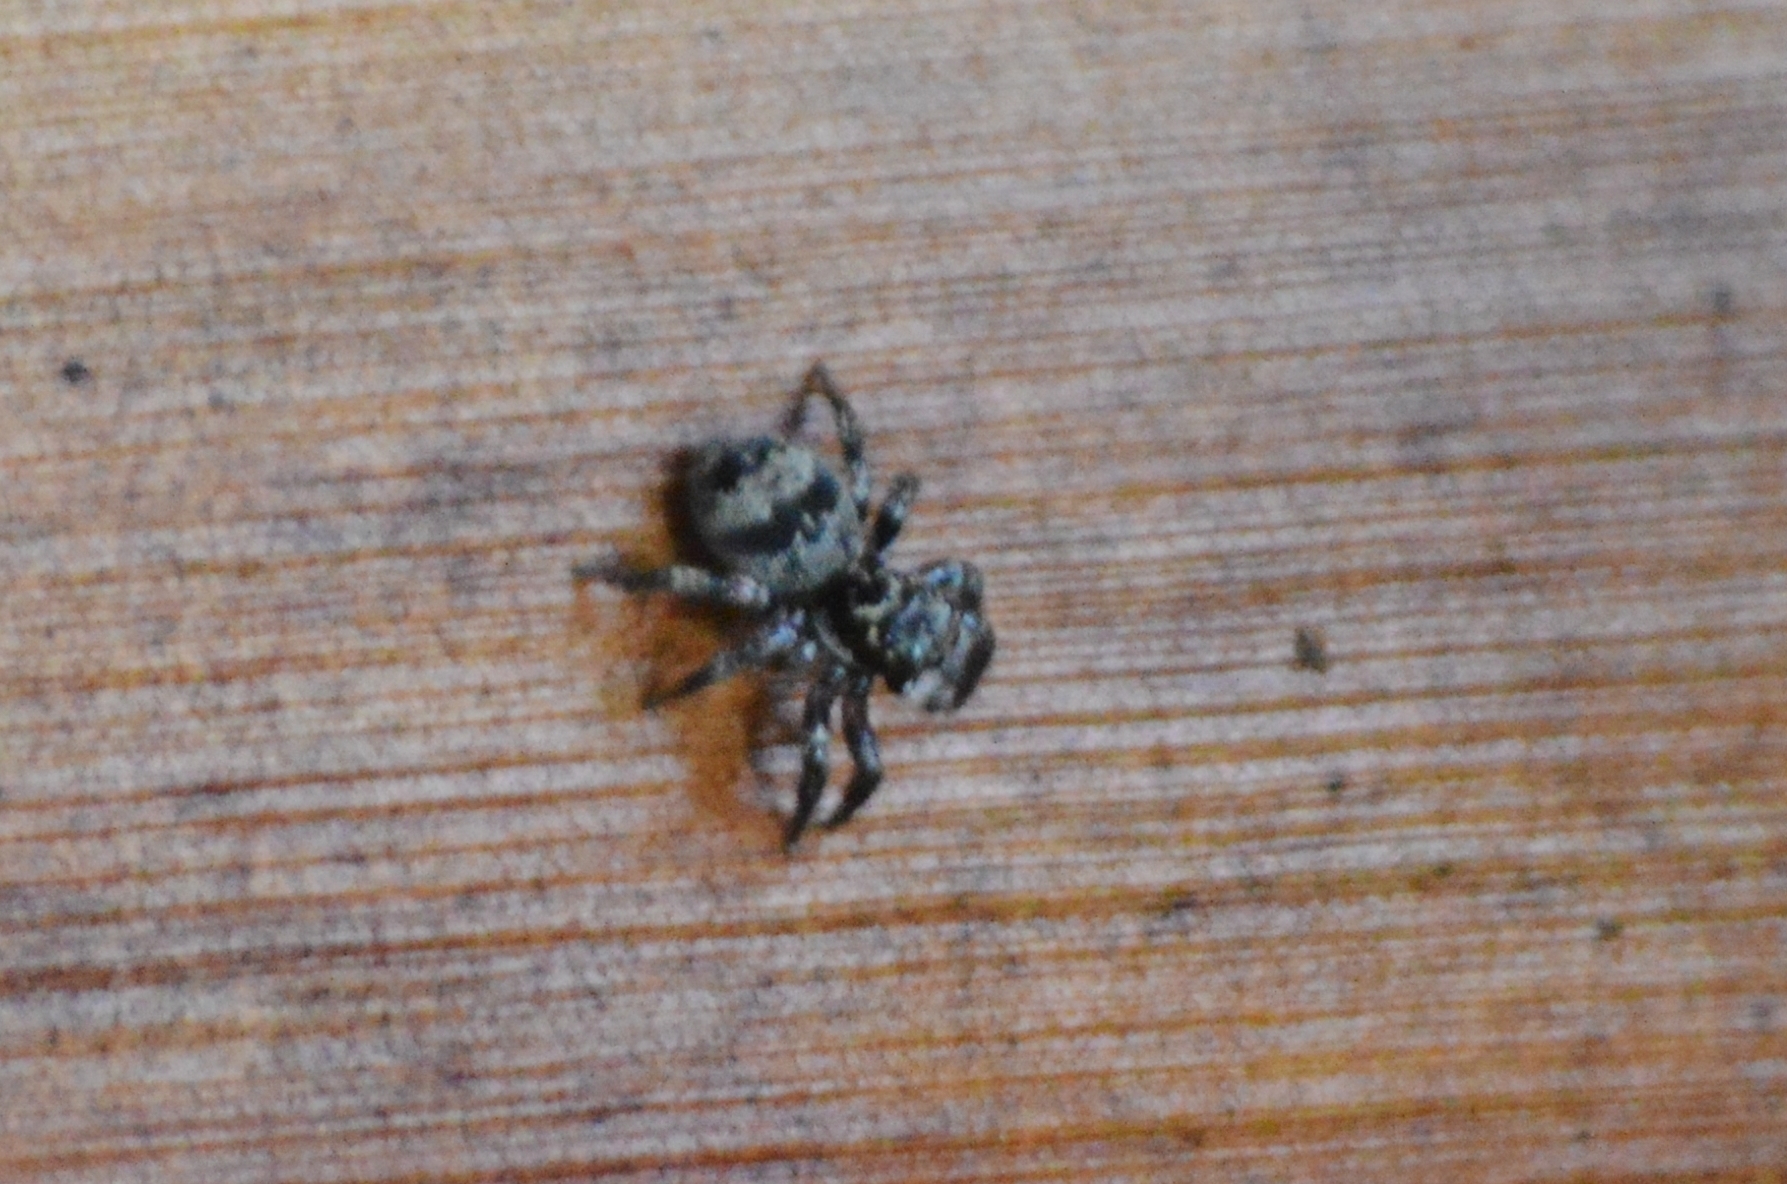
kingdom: Animalia
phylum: Arthropoda
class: Arachnida
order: Araneae
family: Salticidae
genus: Corythalia
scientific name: Corythalia conferta
